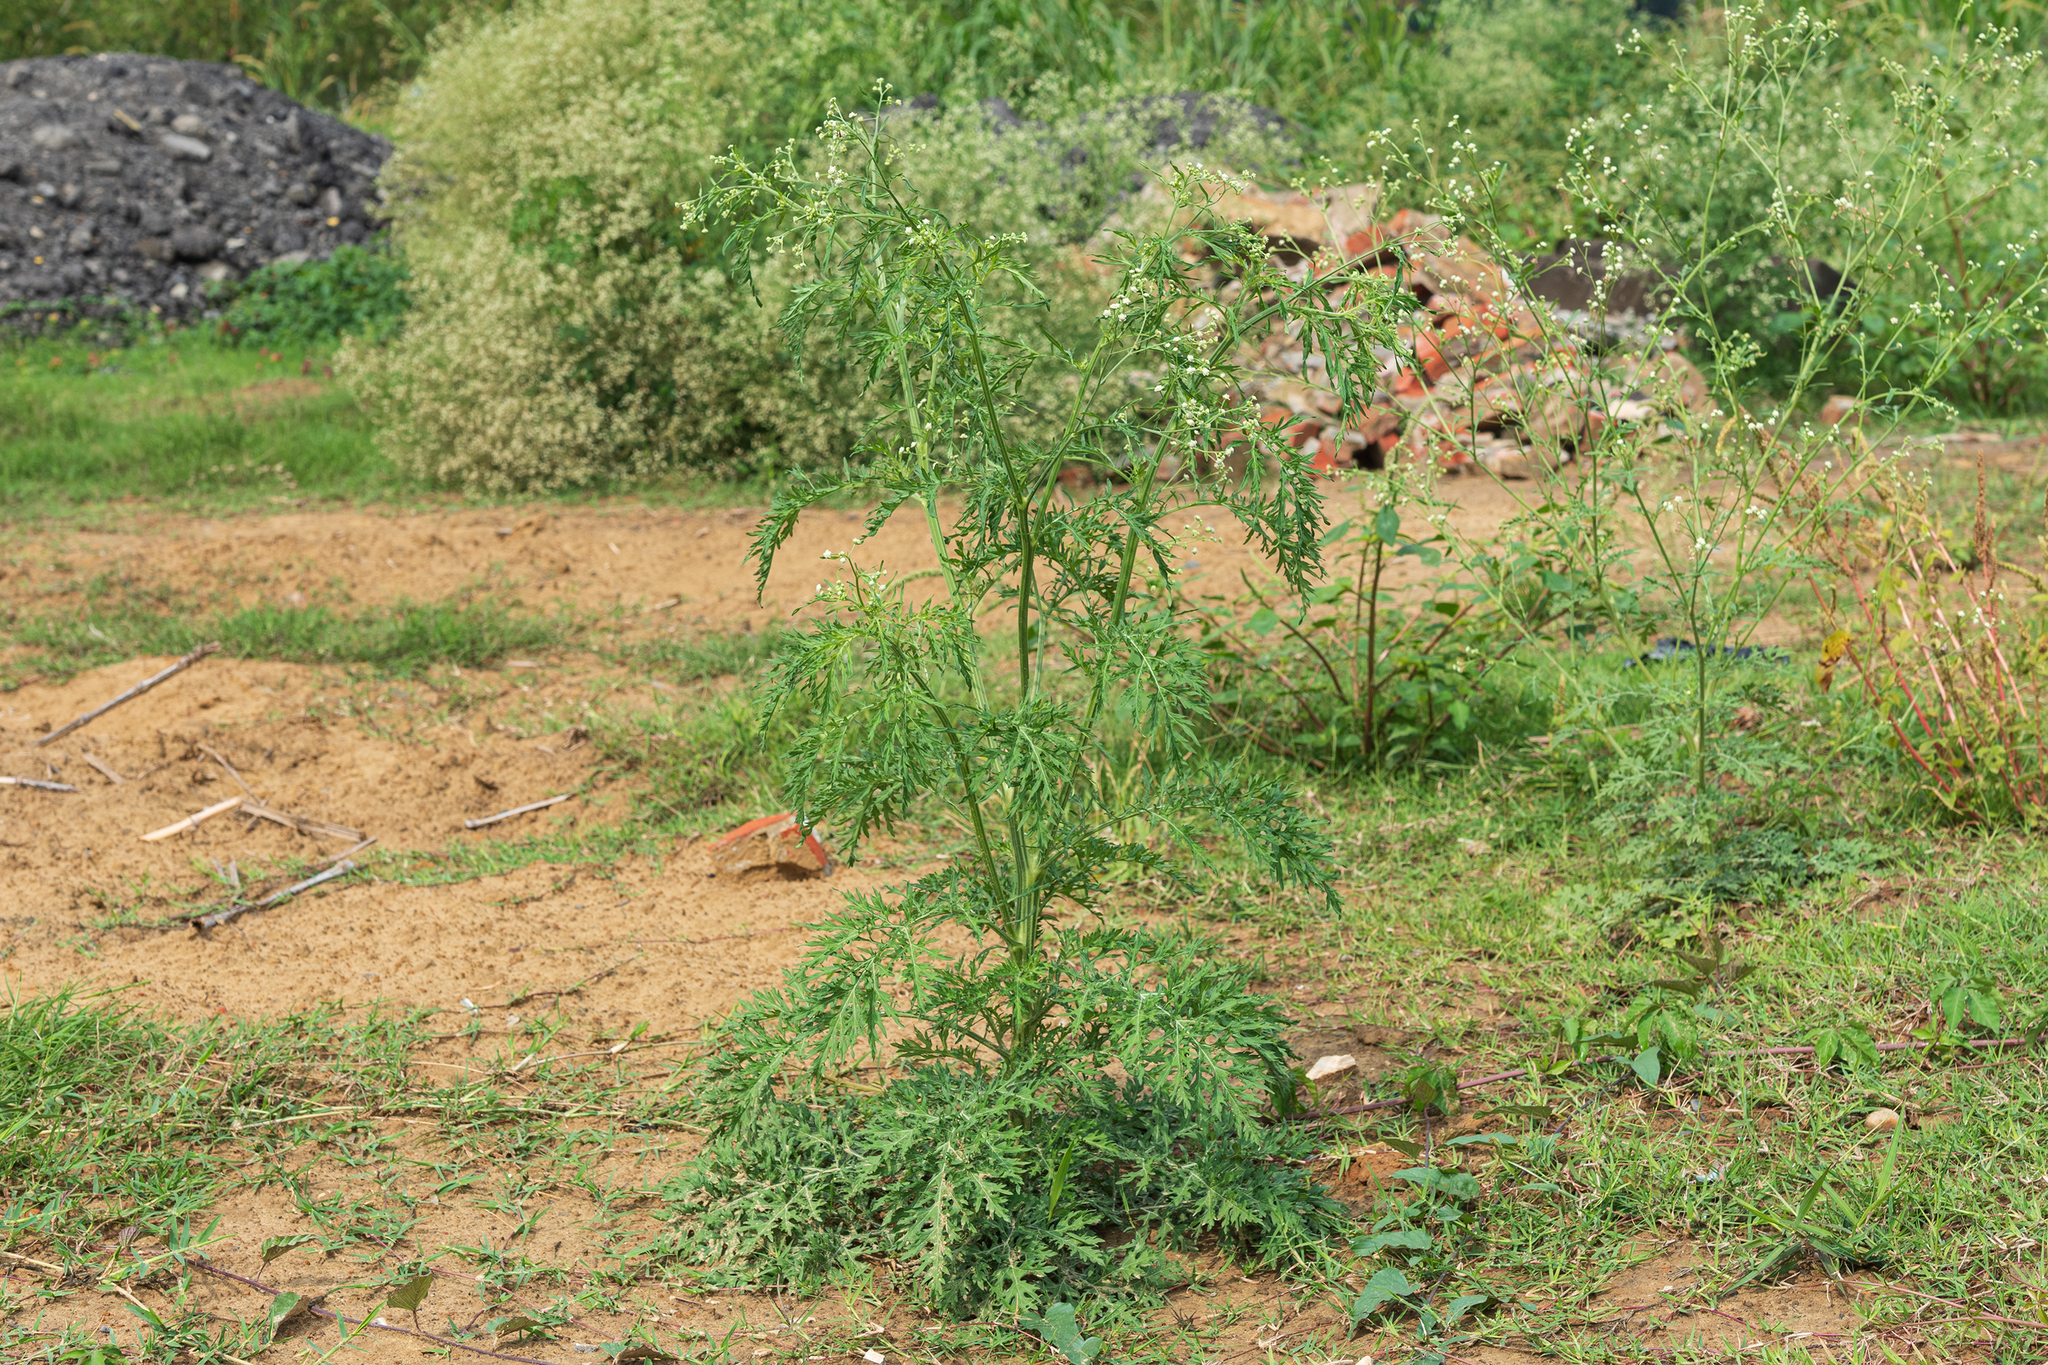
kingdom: Plantae
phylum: Tracheophyta
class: Magnoliopsida
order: Asterales
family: Asteraceae
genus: Parthenium
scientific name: Parthenium hysterophorus
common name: Santa maria feverfew
